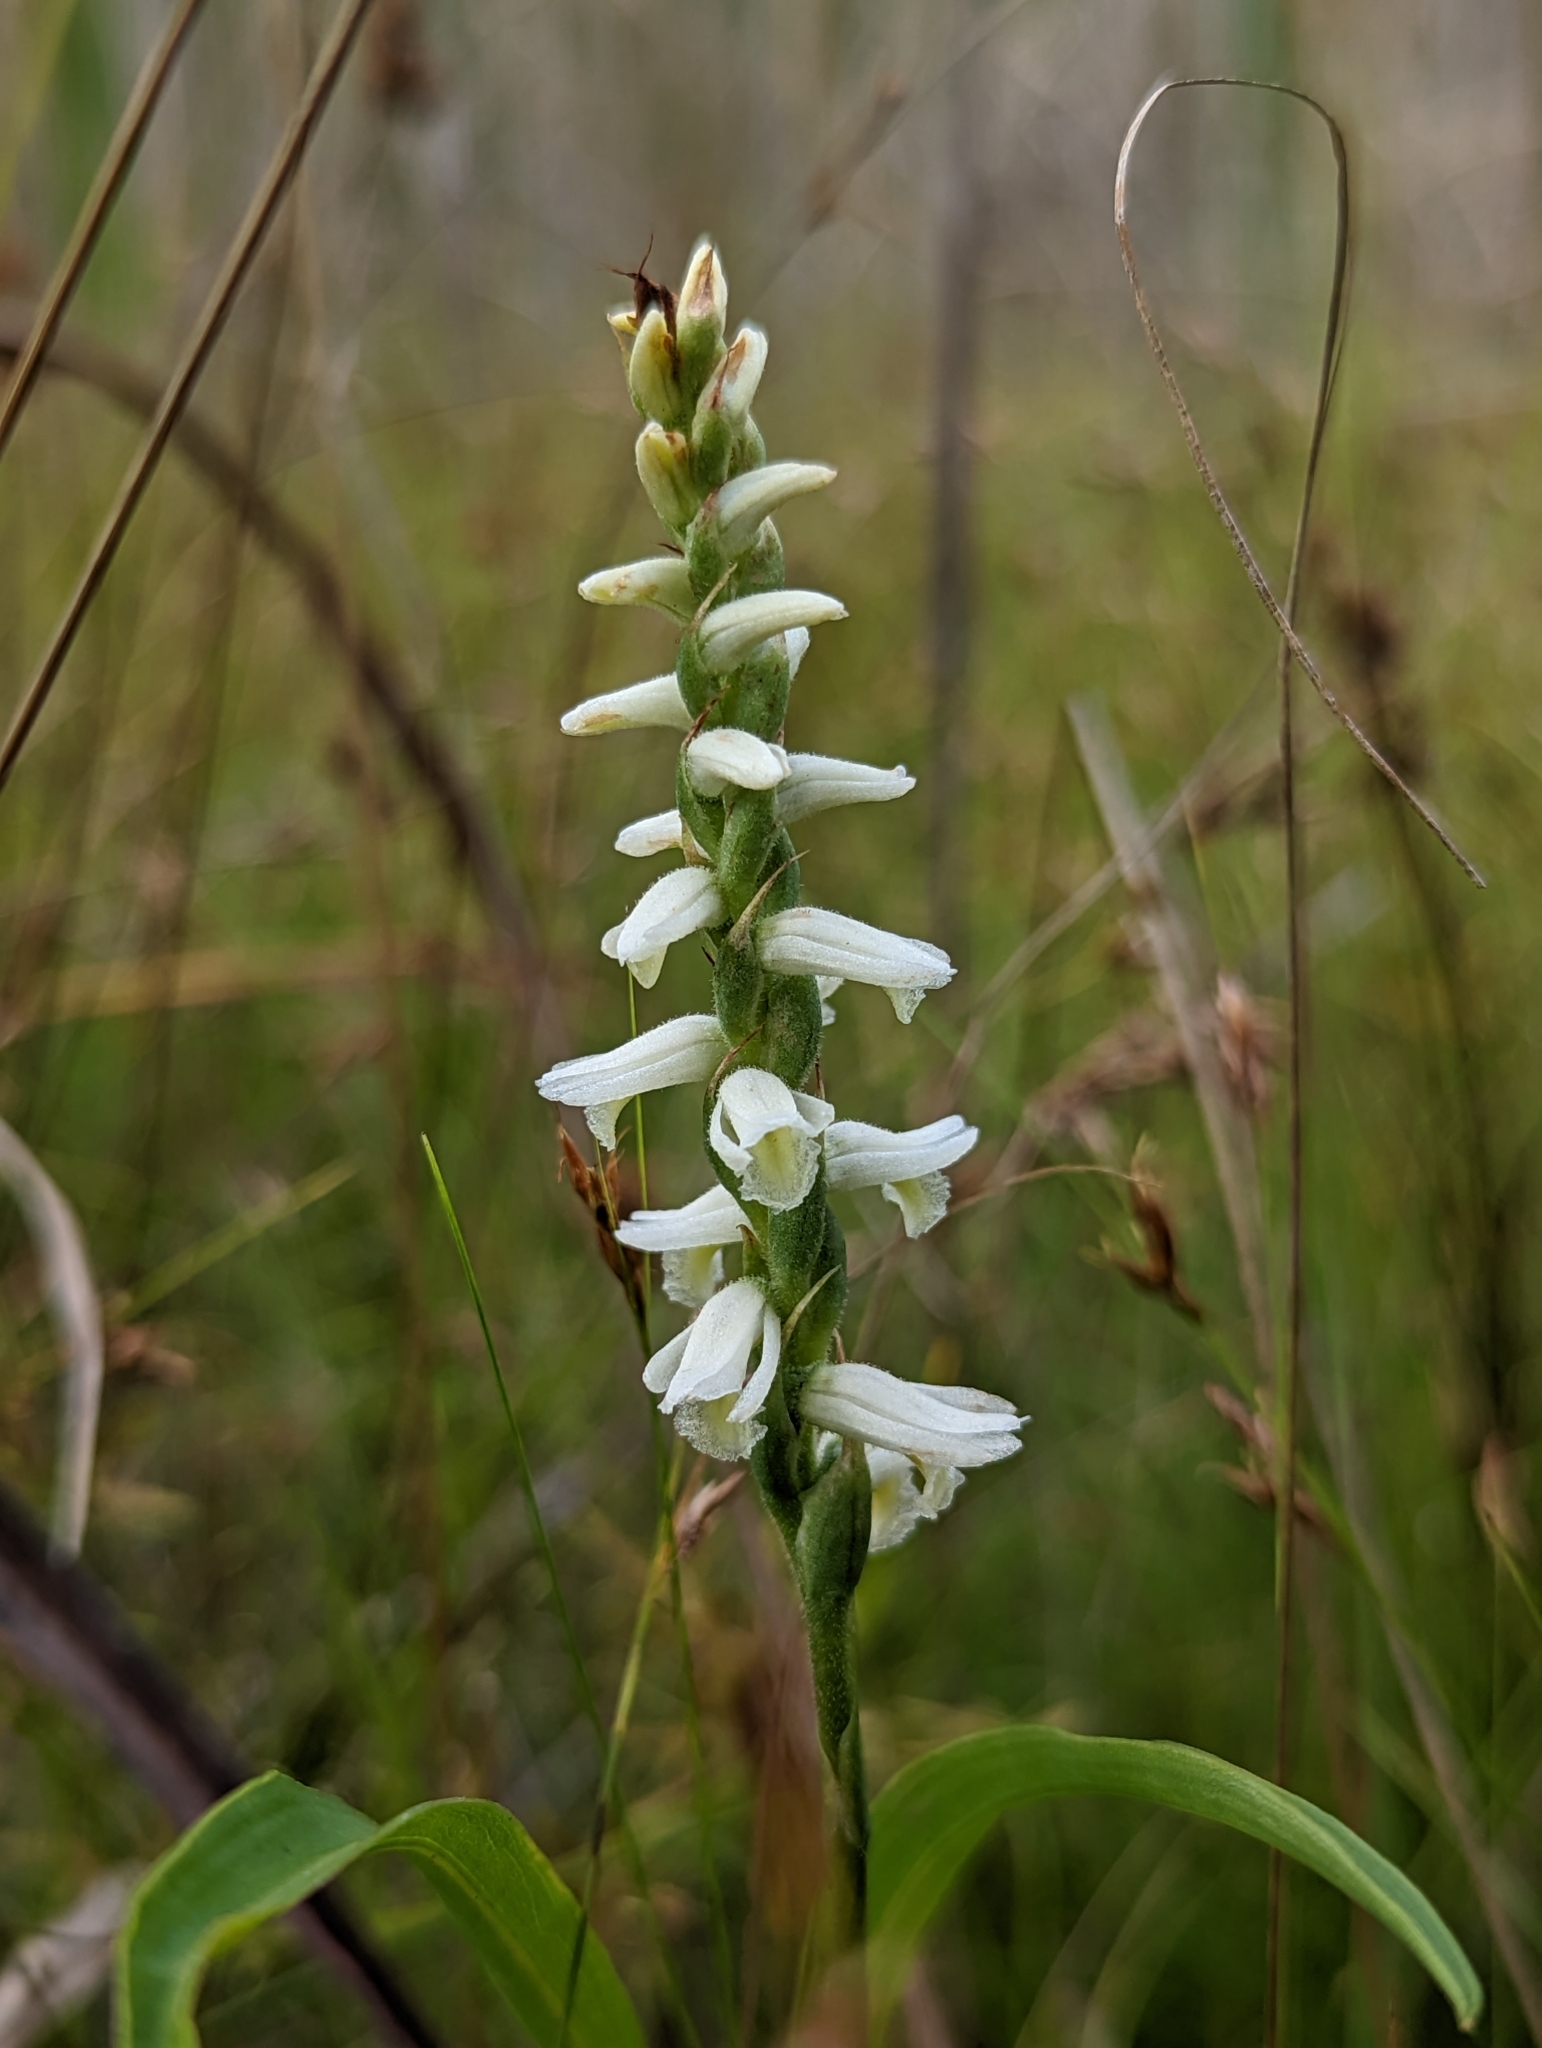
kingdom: Plantae
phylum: Tracheophyta
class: Liliopsida
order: Asparagales
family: Orchidaceae
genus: Spiranthes
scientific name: Spiranthes magnicamporum
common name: Great plains ladies'-tresses
